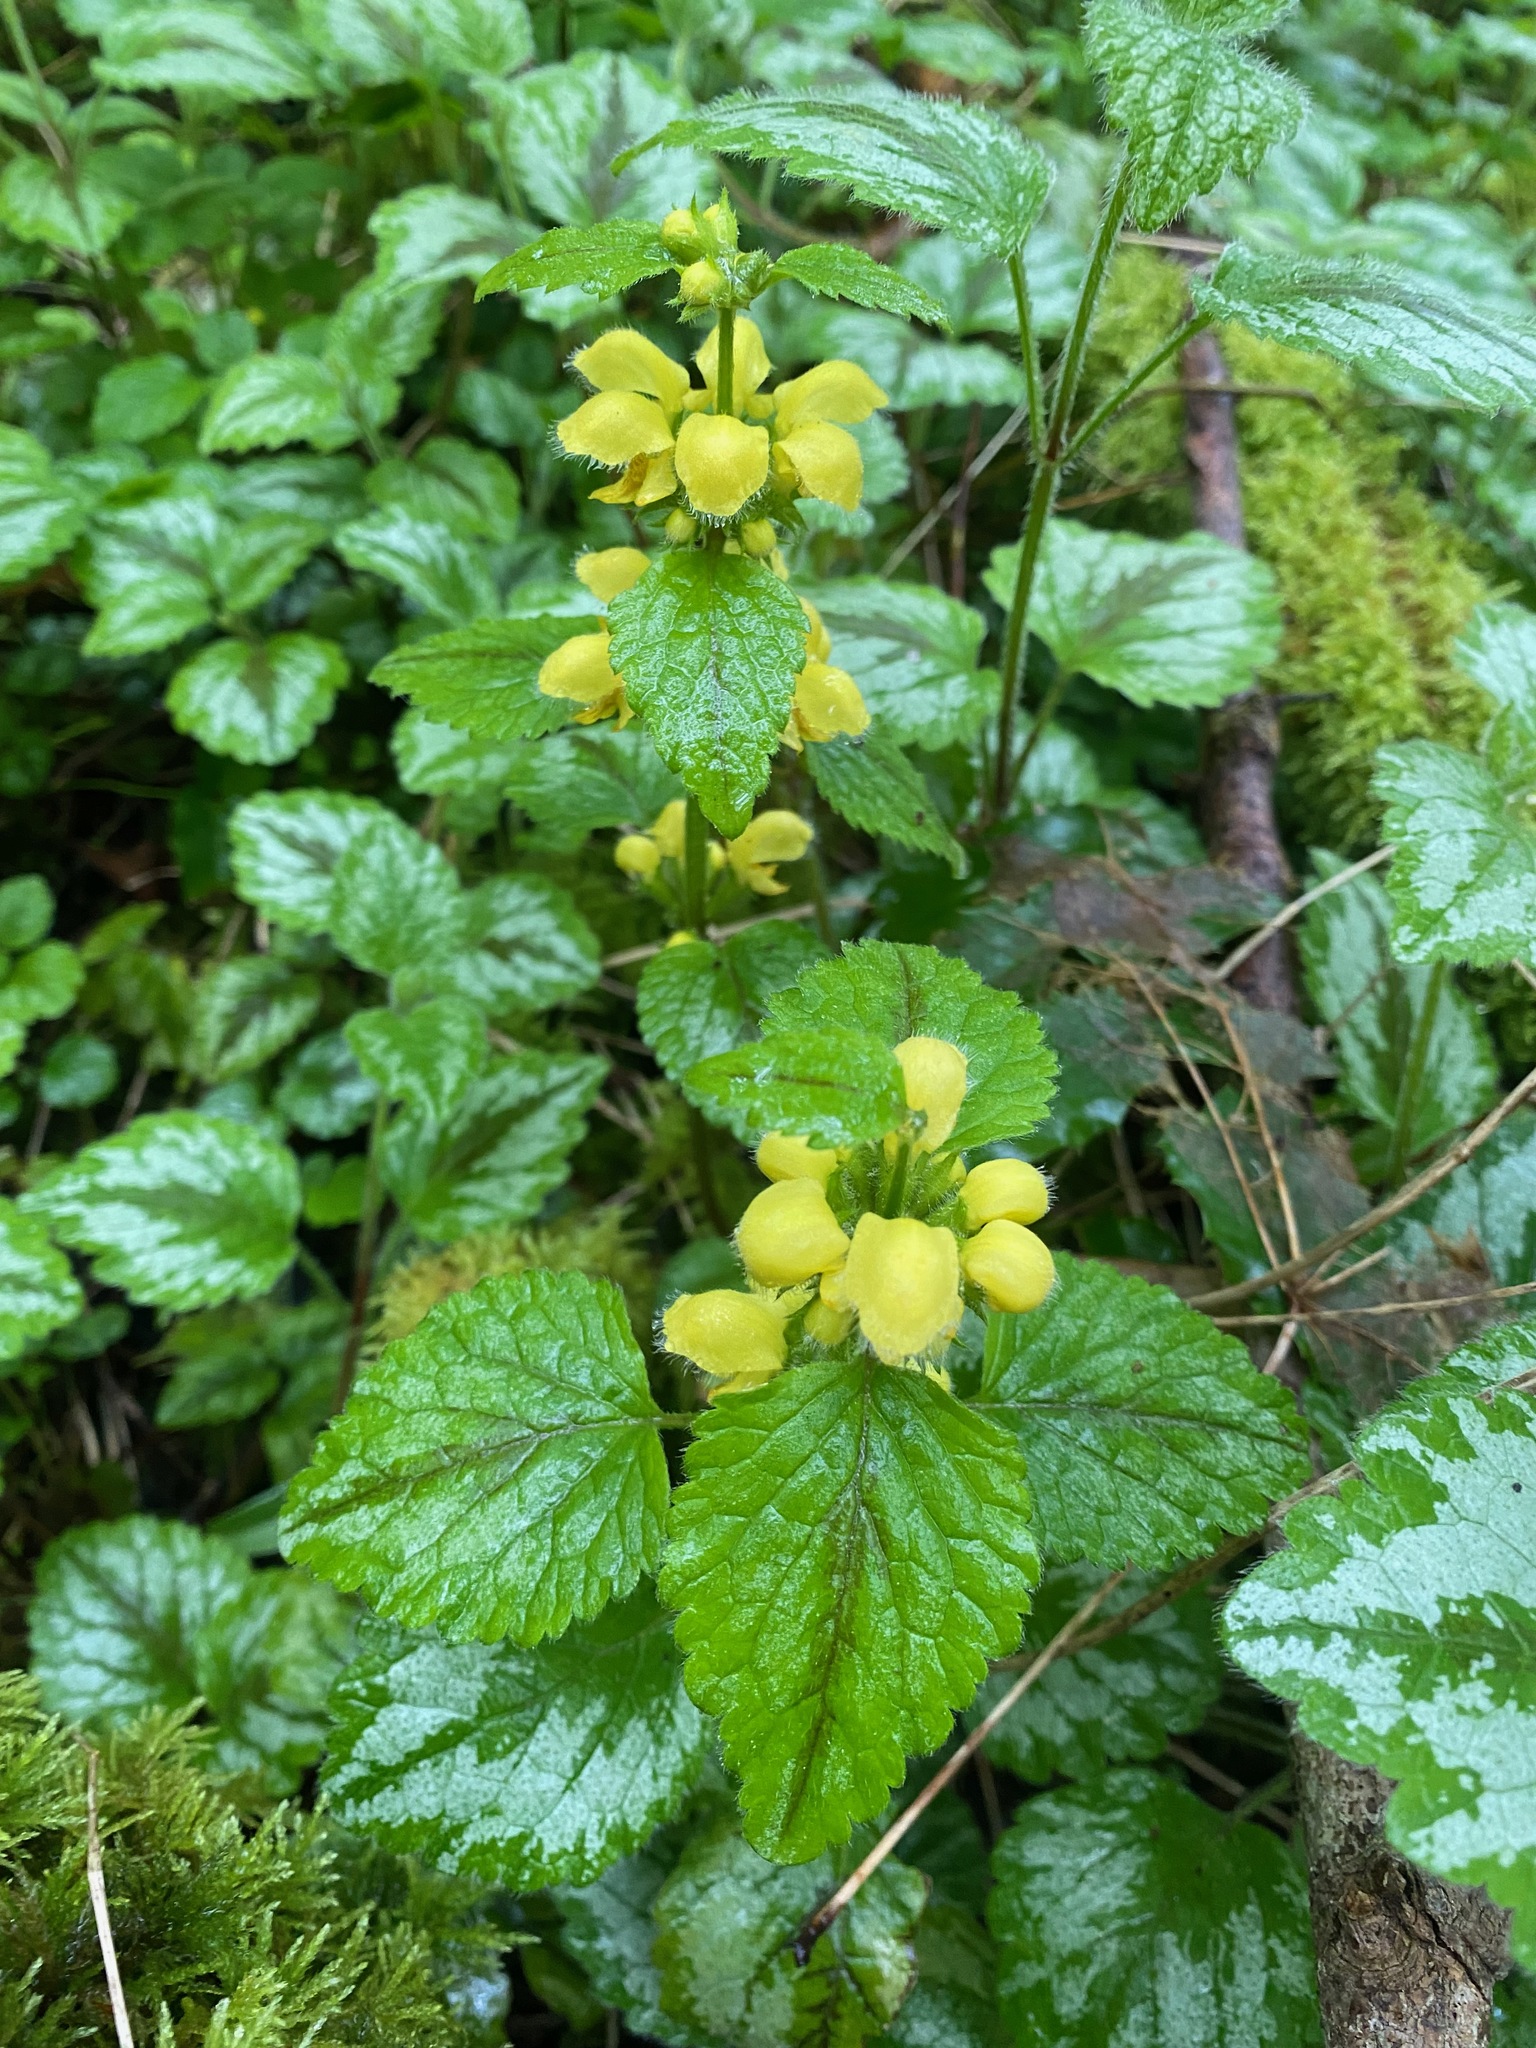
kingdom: Plantae
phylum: Tracheophyta
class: Magnoliopsida
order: Lamiales
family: Lamiaceae
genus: Lamium
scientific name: Lamium galeobdolon
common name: Yellow archangel
